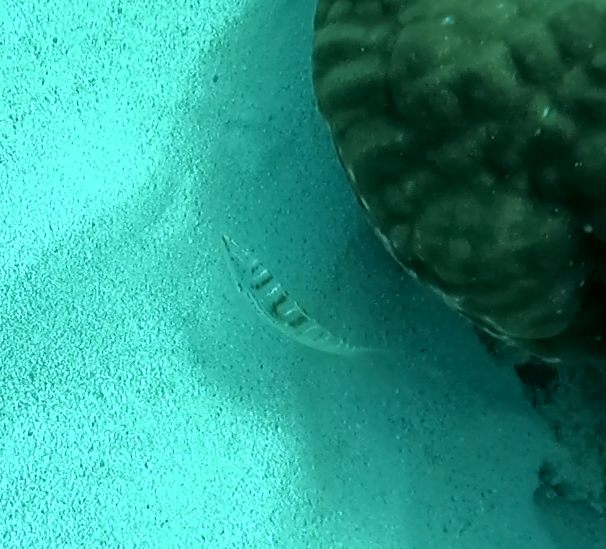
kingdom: Animalia
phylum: Chordata
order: Perciformes
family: Labridae
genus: Coris
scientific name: Coris batuensis
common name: Batu coris
